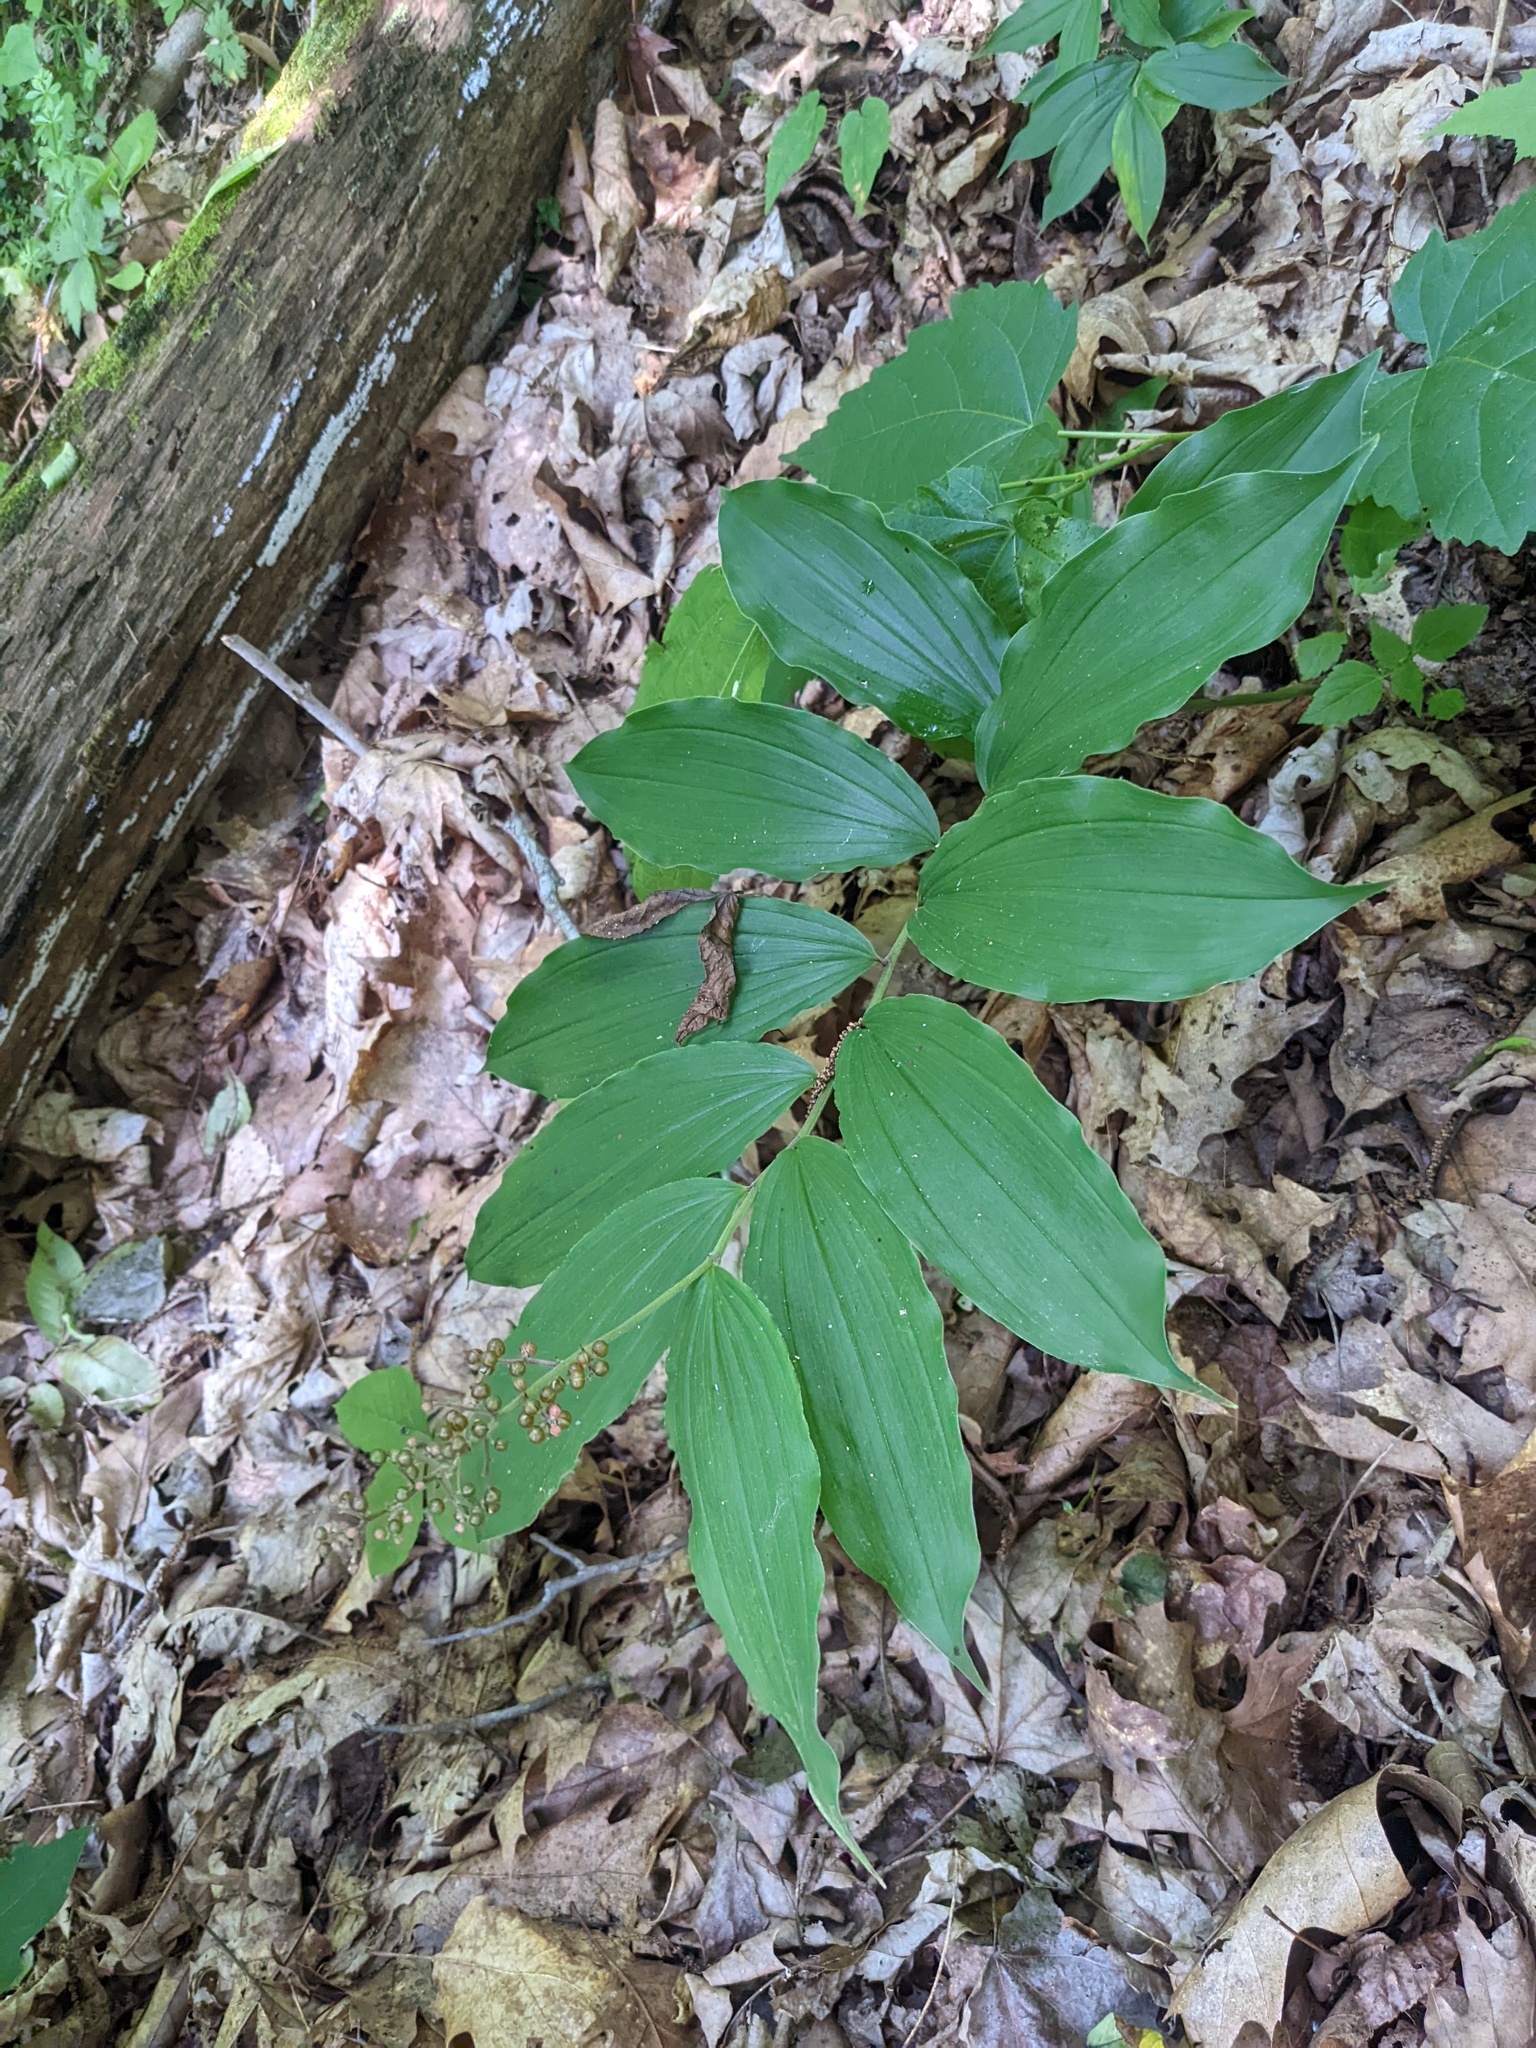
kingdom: Plantae
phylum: Tracheophyta
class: Liliopsida
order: Asparagales
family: Asparagaceae
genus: Maianthemum
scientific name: Maianthemum racemosum
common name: False spikenard
